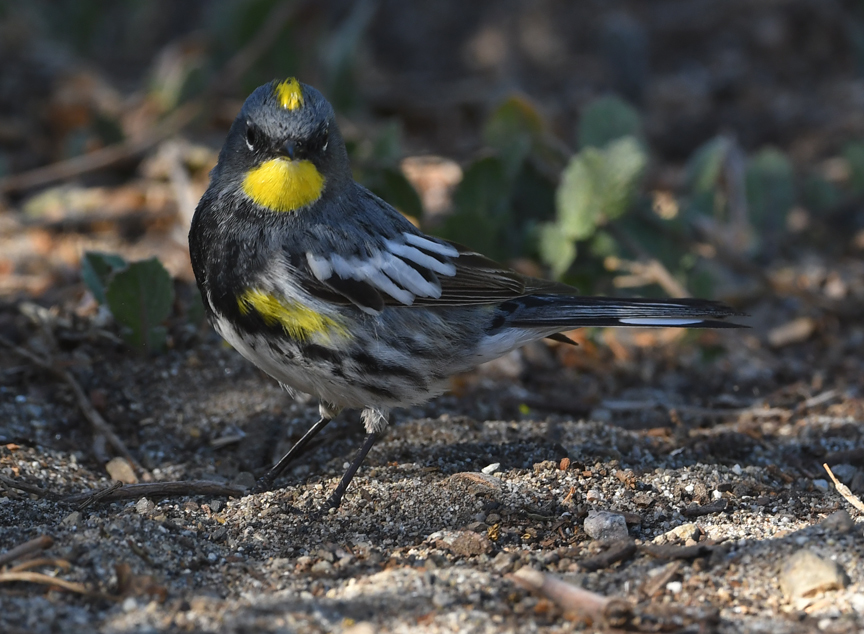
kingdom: Animalia
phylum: Chordata
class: Aves
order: Passeriformes
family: Parulidae
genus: Setophaga
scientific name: Setophaga auduboni
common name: Audubon's warbler
